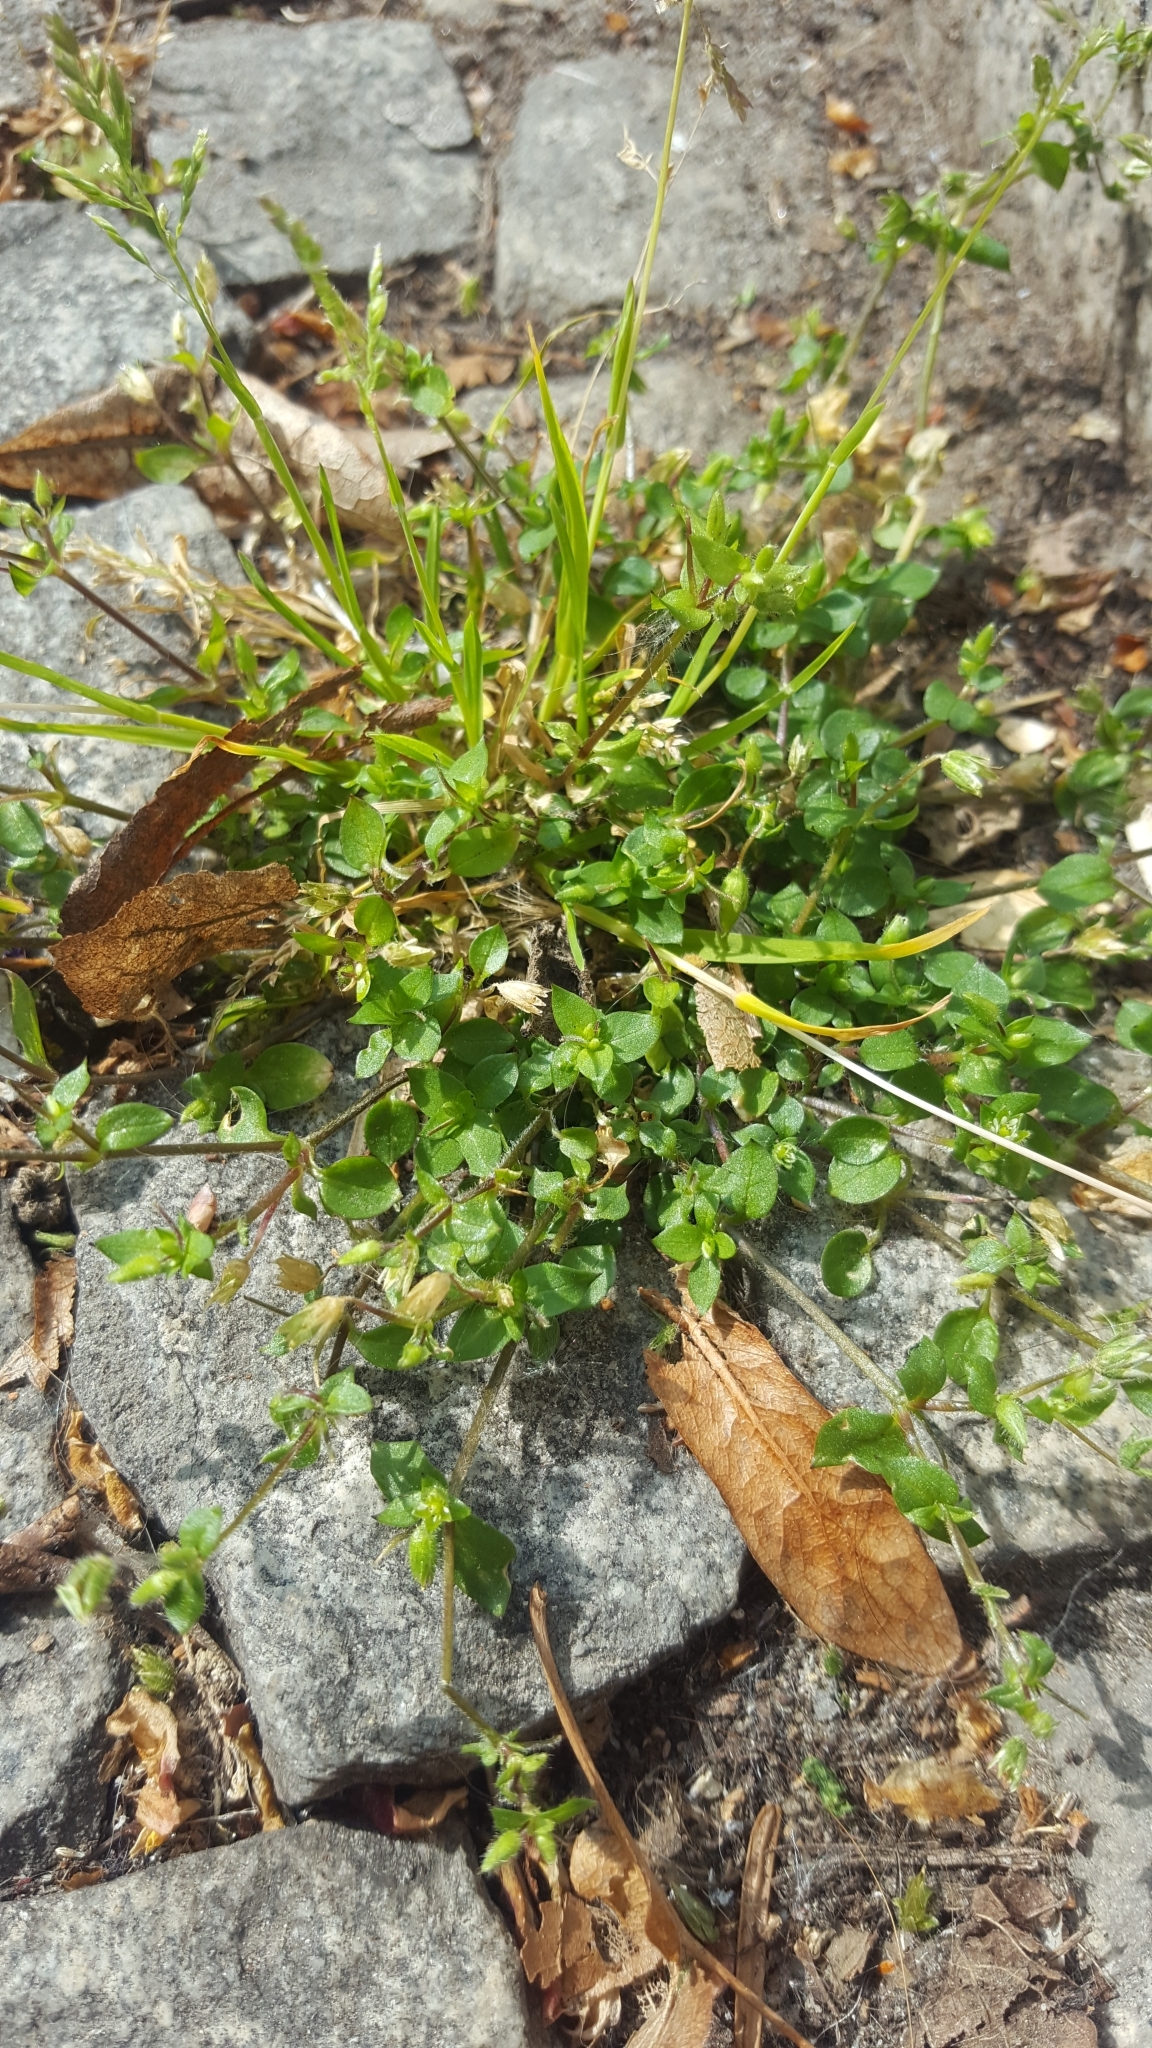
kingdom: Plantae
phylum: Tracheophyta
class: Magnoliopsida
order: Caryophyllales
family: Caryophyllaceae
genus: Stellaria
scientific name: Stellaria media
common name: Common chickweed
